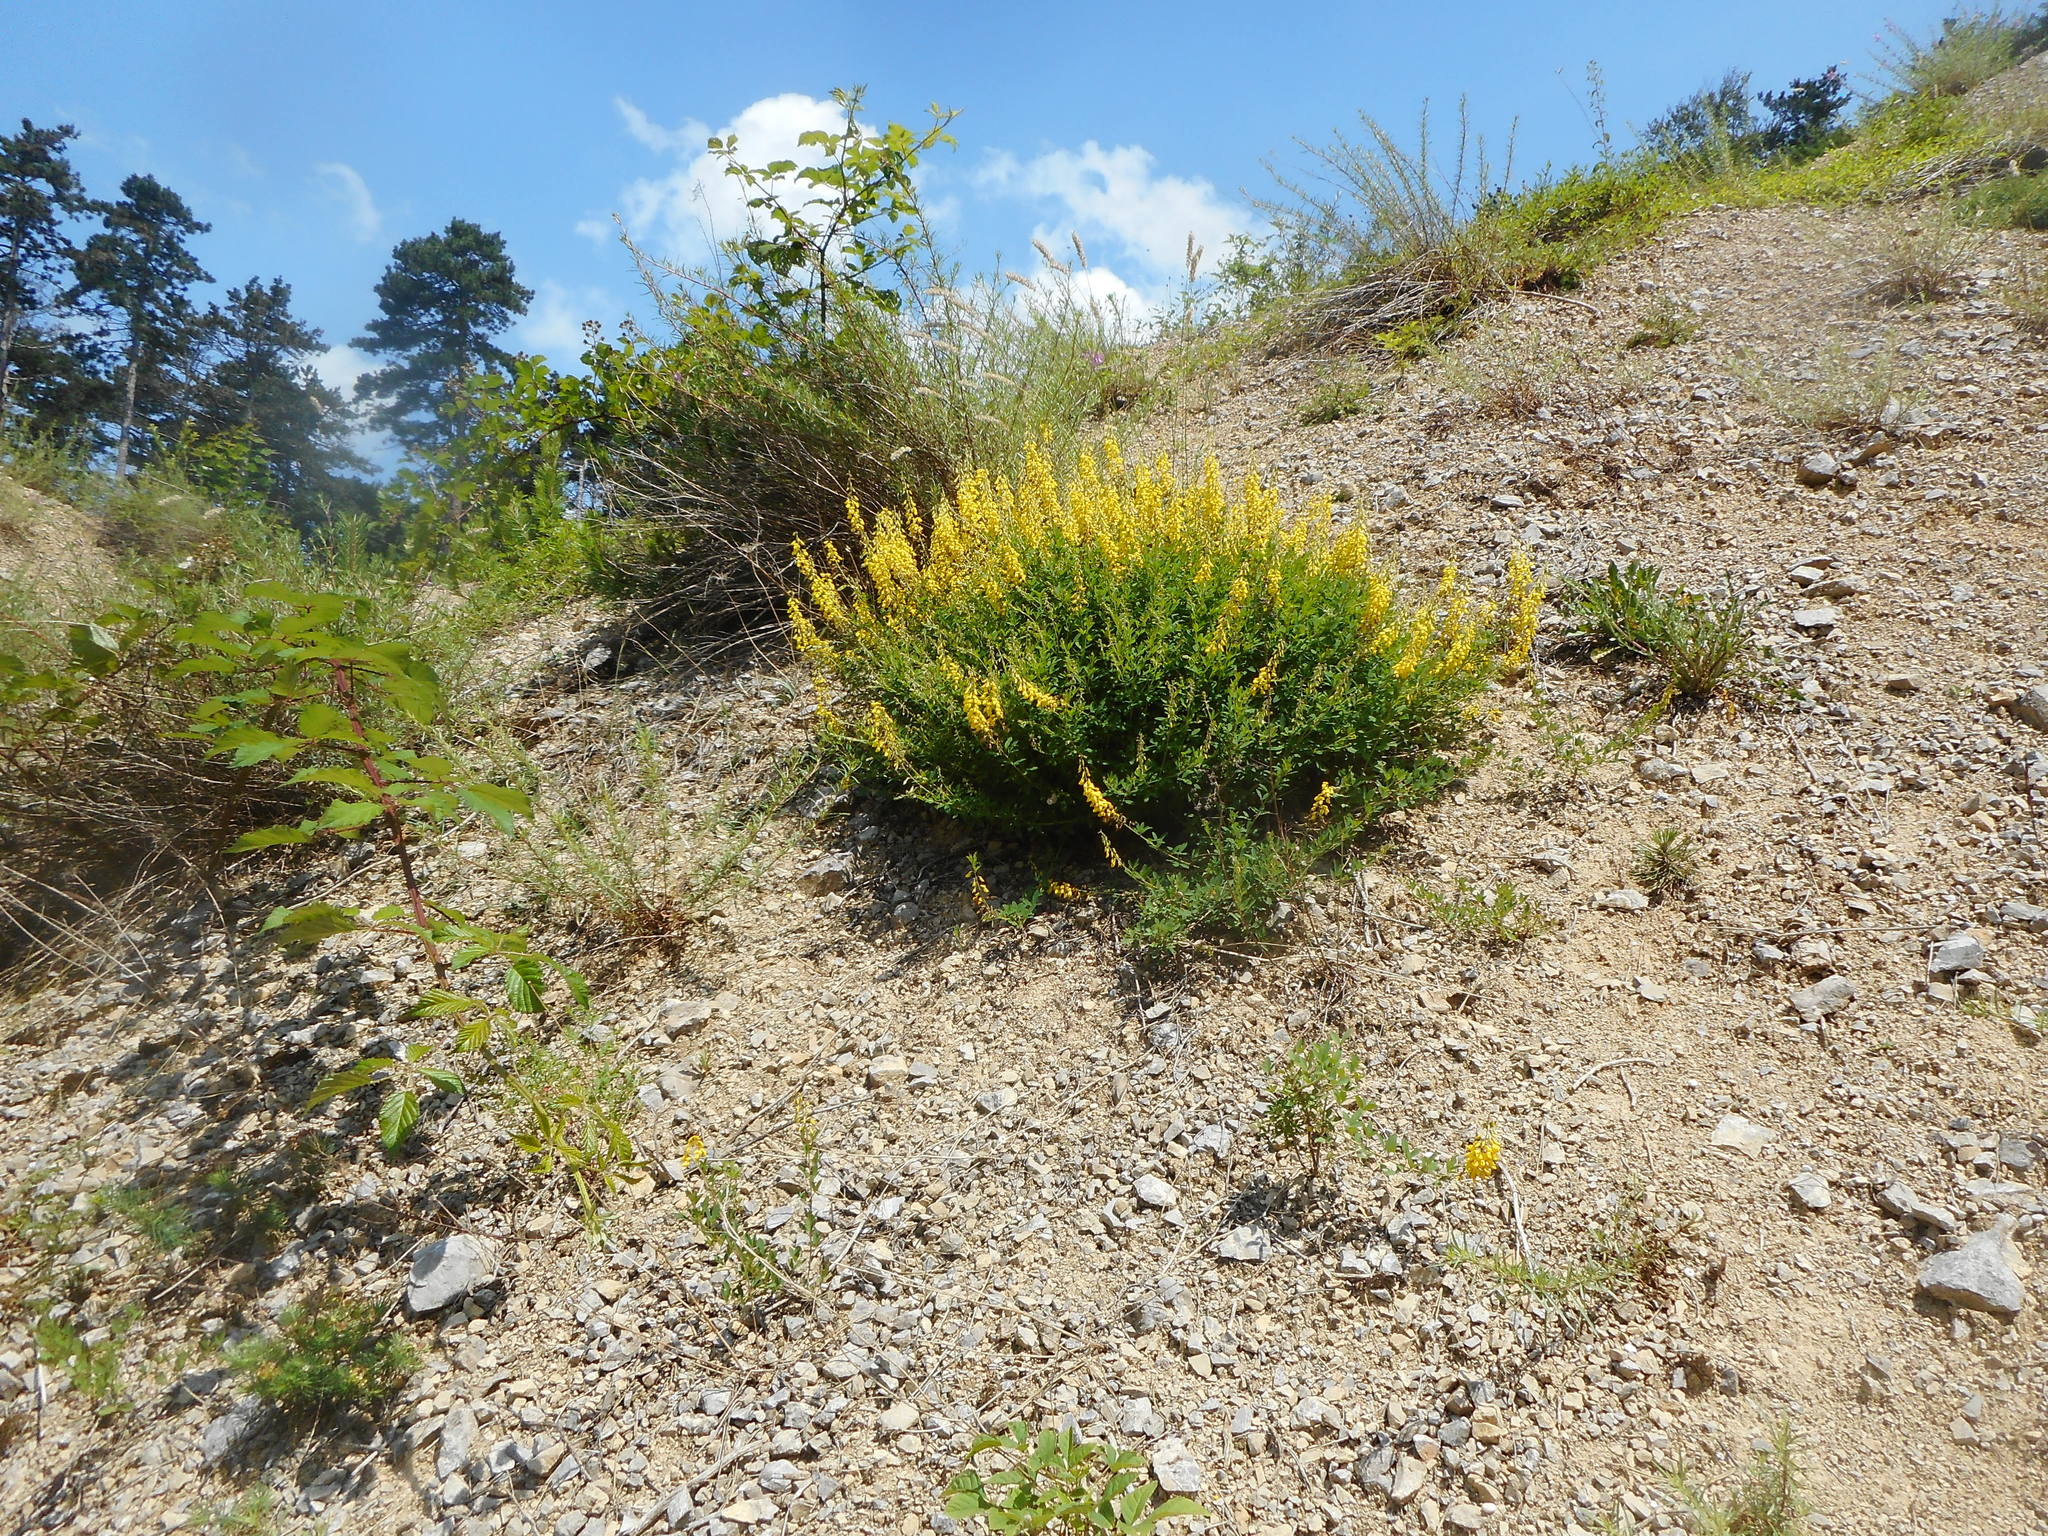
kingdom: Plantae
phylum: Tracheophyta
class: Magnoliopsida
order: Fabales
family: Fabaceae
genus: Cytisus
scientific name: Cytisus nigricans
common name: Black broom
